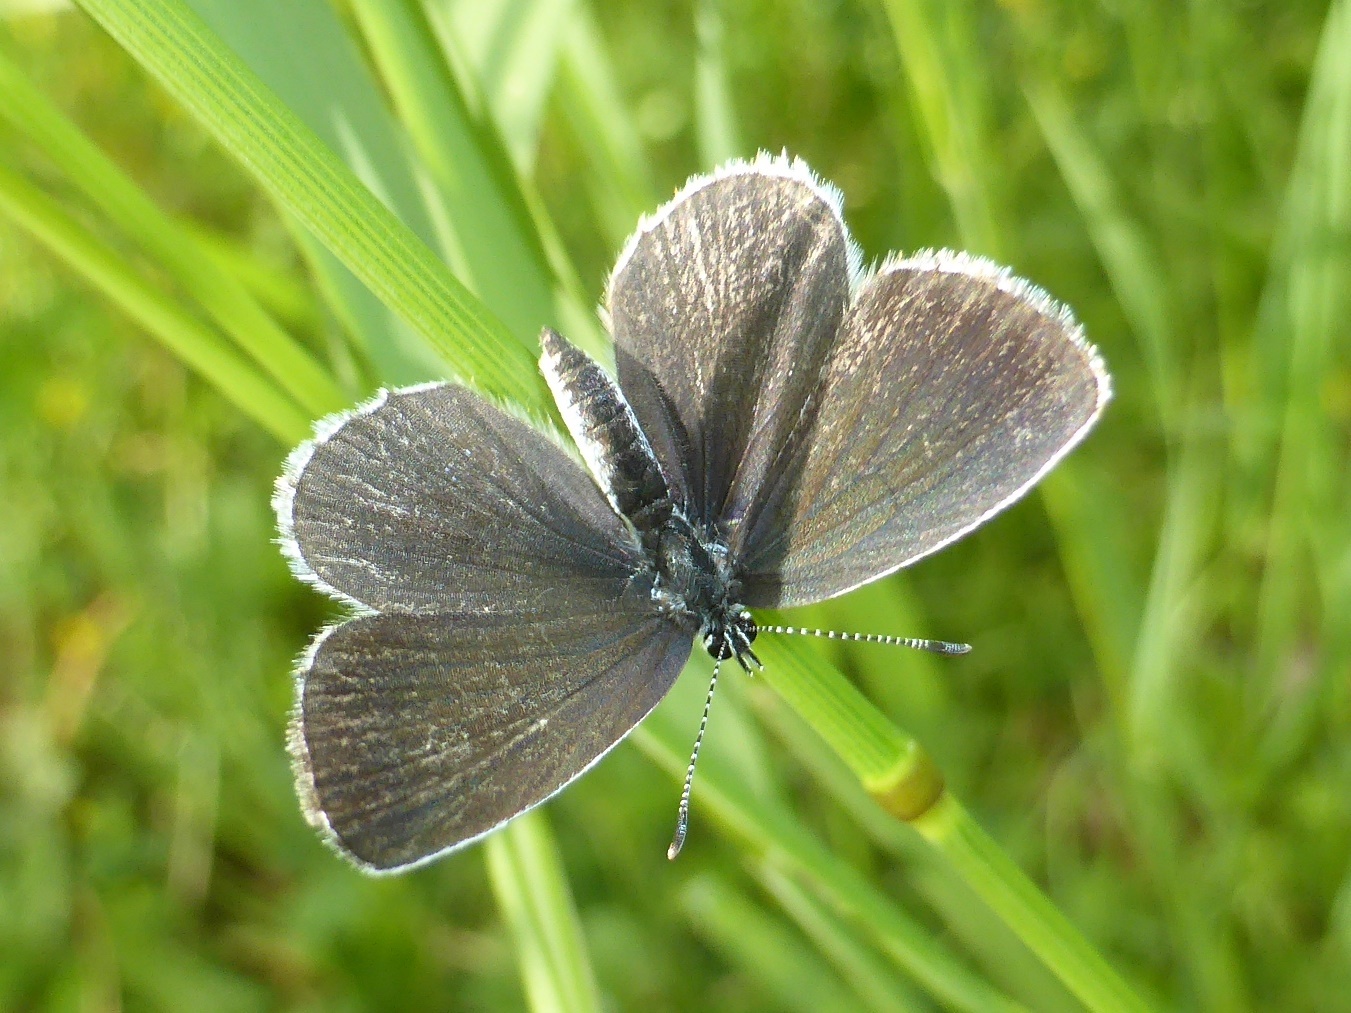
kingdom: Animalia
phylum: Arthropoda
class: Insecta
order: Lepidoptera
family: Lycaenidae
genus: Elkalyce
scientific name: Elkalyce alcetas
